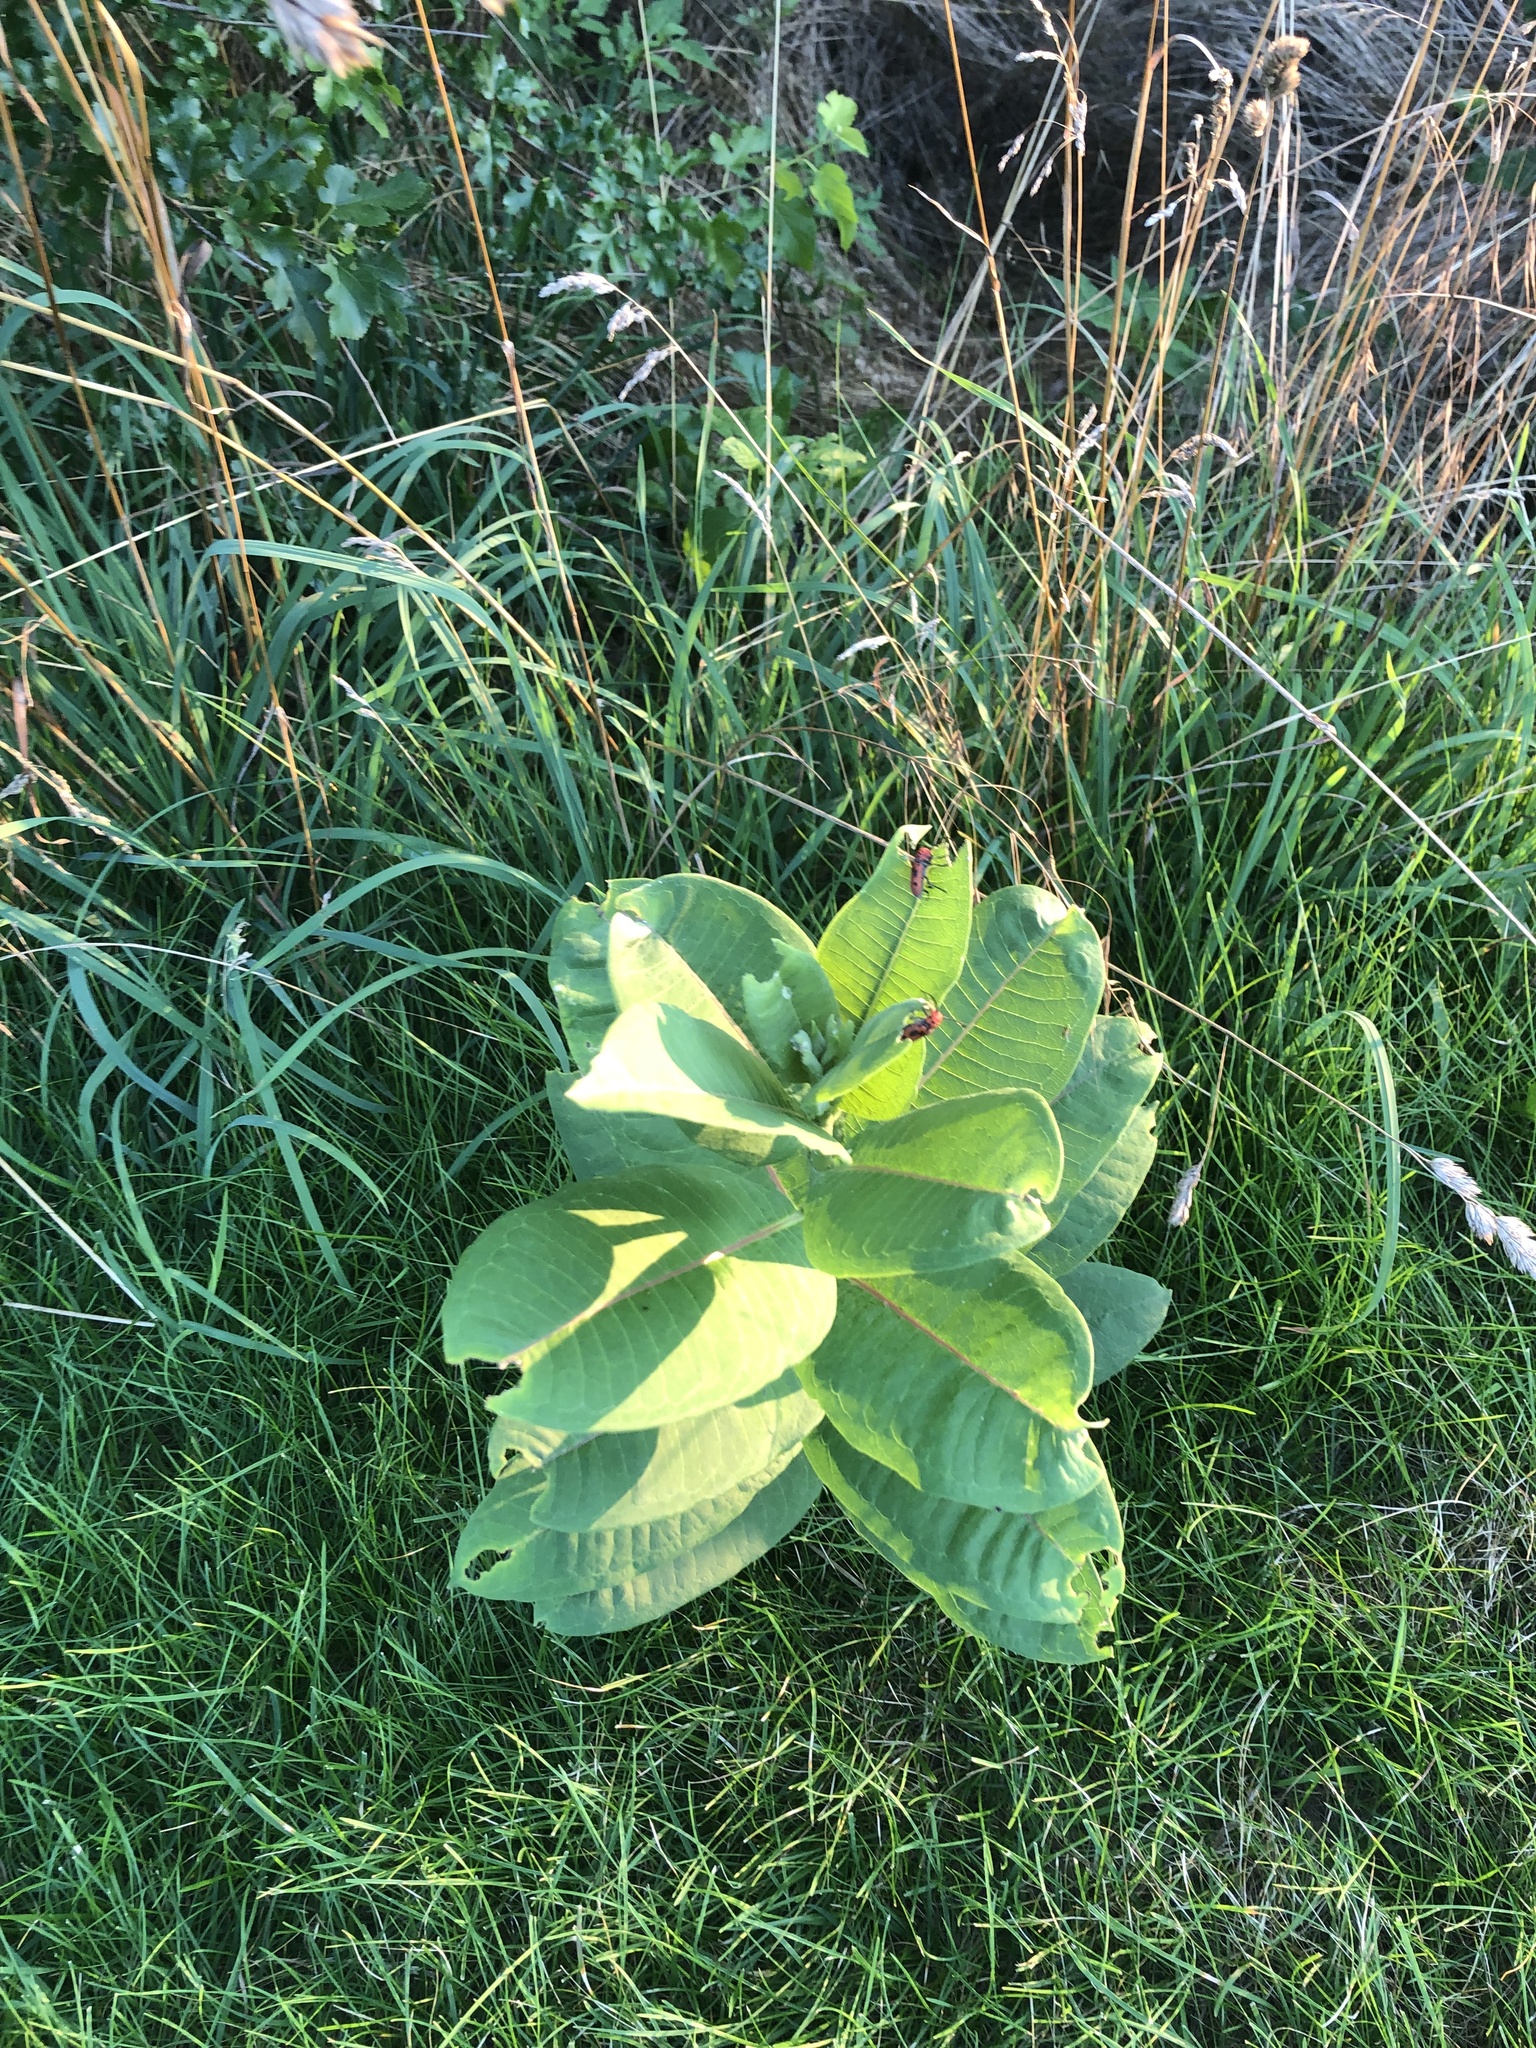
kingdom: Animalia
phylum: Arthropoda
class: Insecta
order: Coleoptera
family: Cerambycidae
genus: Tetraopes
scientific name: Tetraopes tetrophthalmus
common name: Red milkweed beetle
